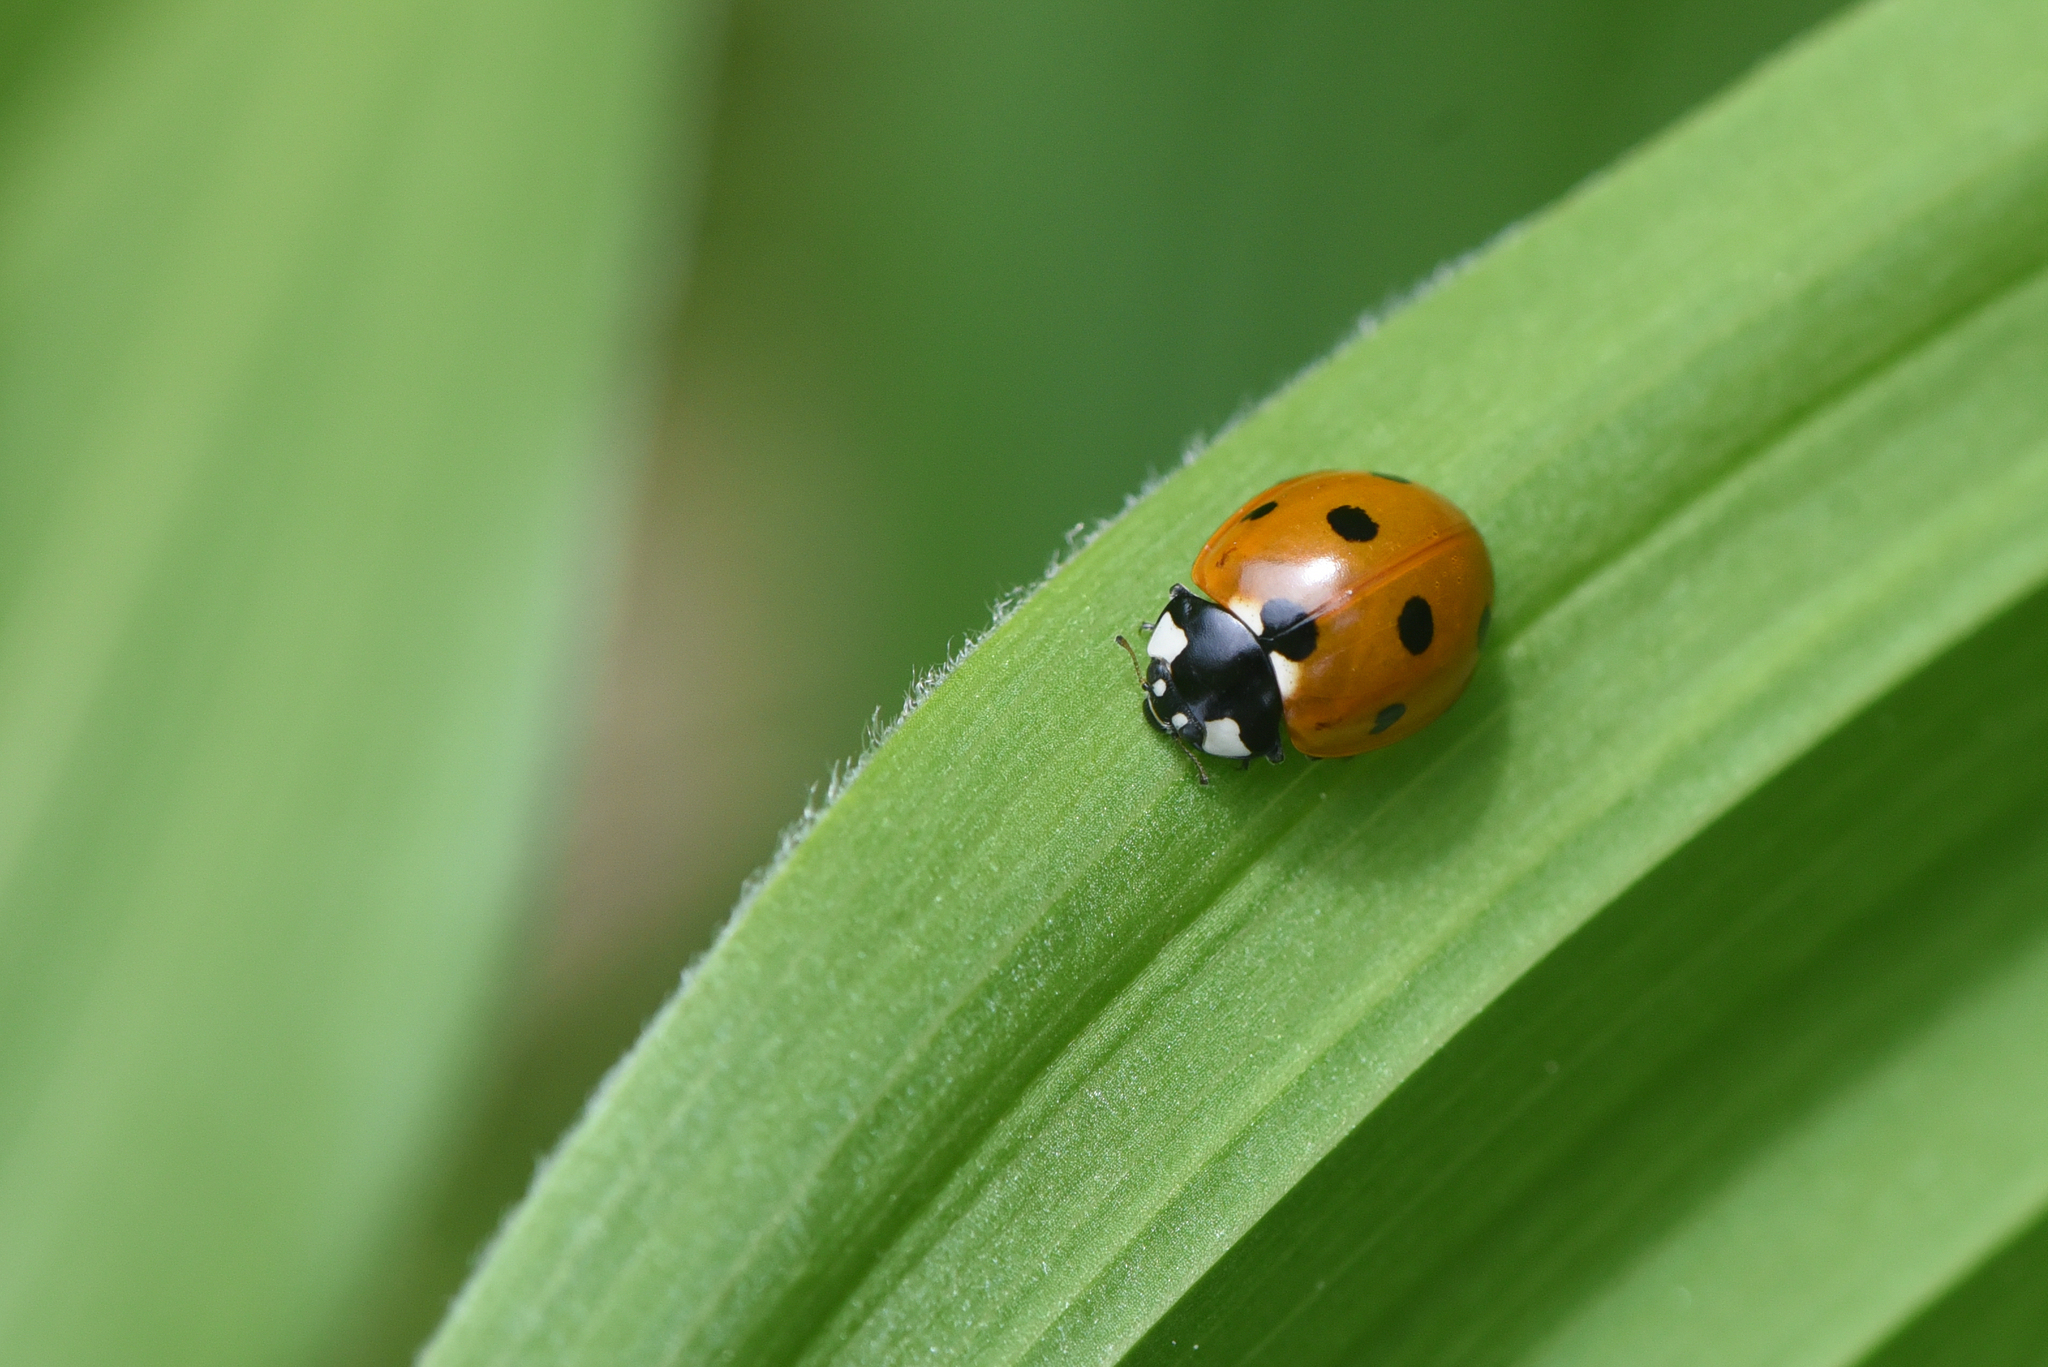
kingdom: Animalia
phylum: Arthropoda
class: Insecta
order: Coleoptera
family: Coccinellidae
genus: Coccinella
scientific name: Coccinella septempunctata
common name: Sevenspotted lady beetle
